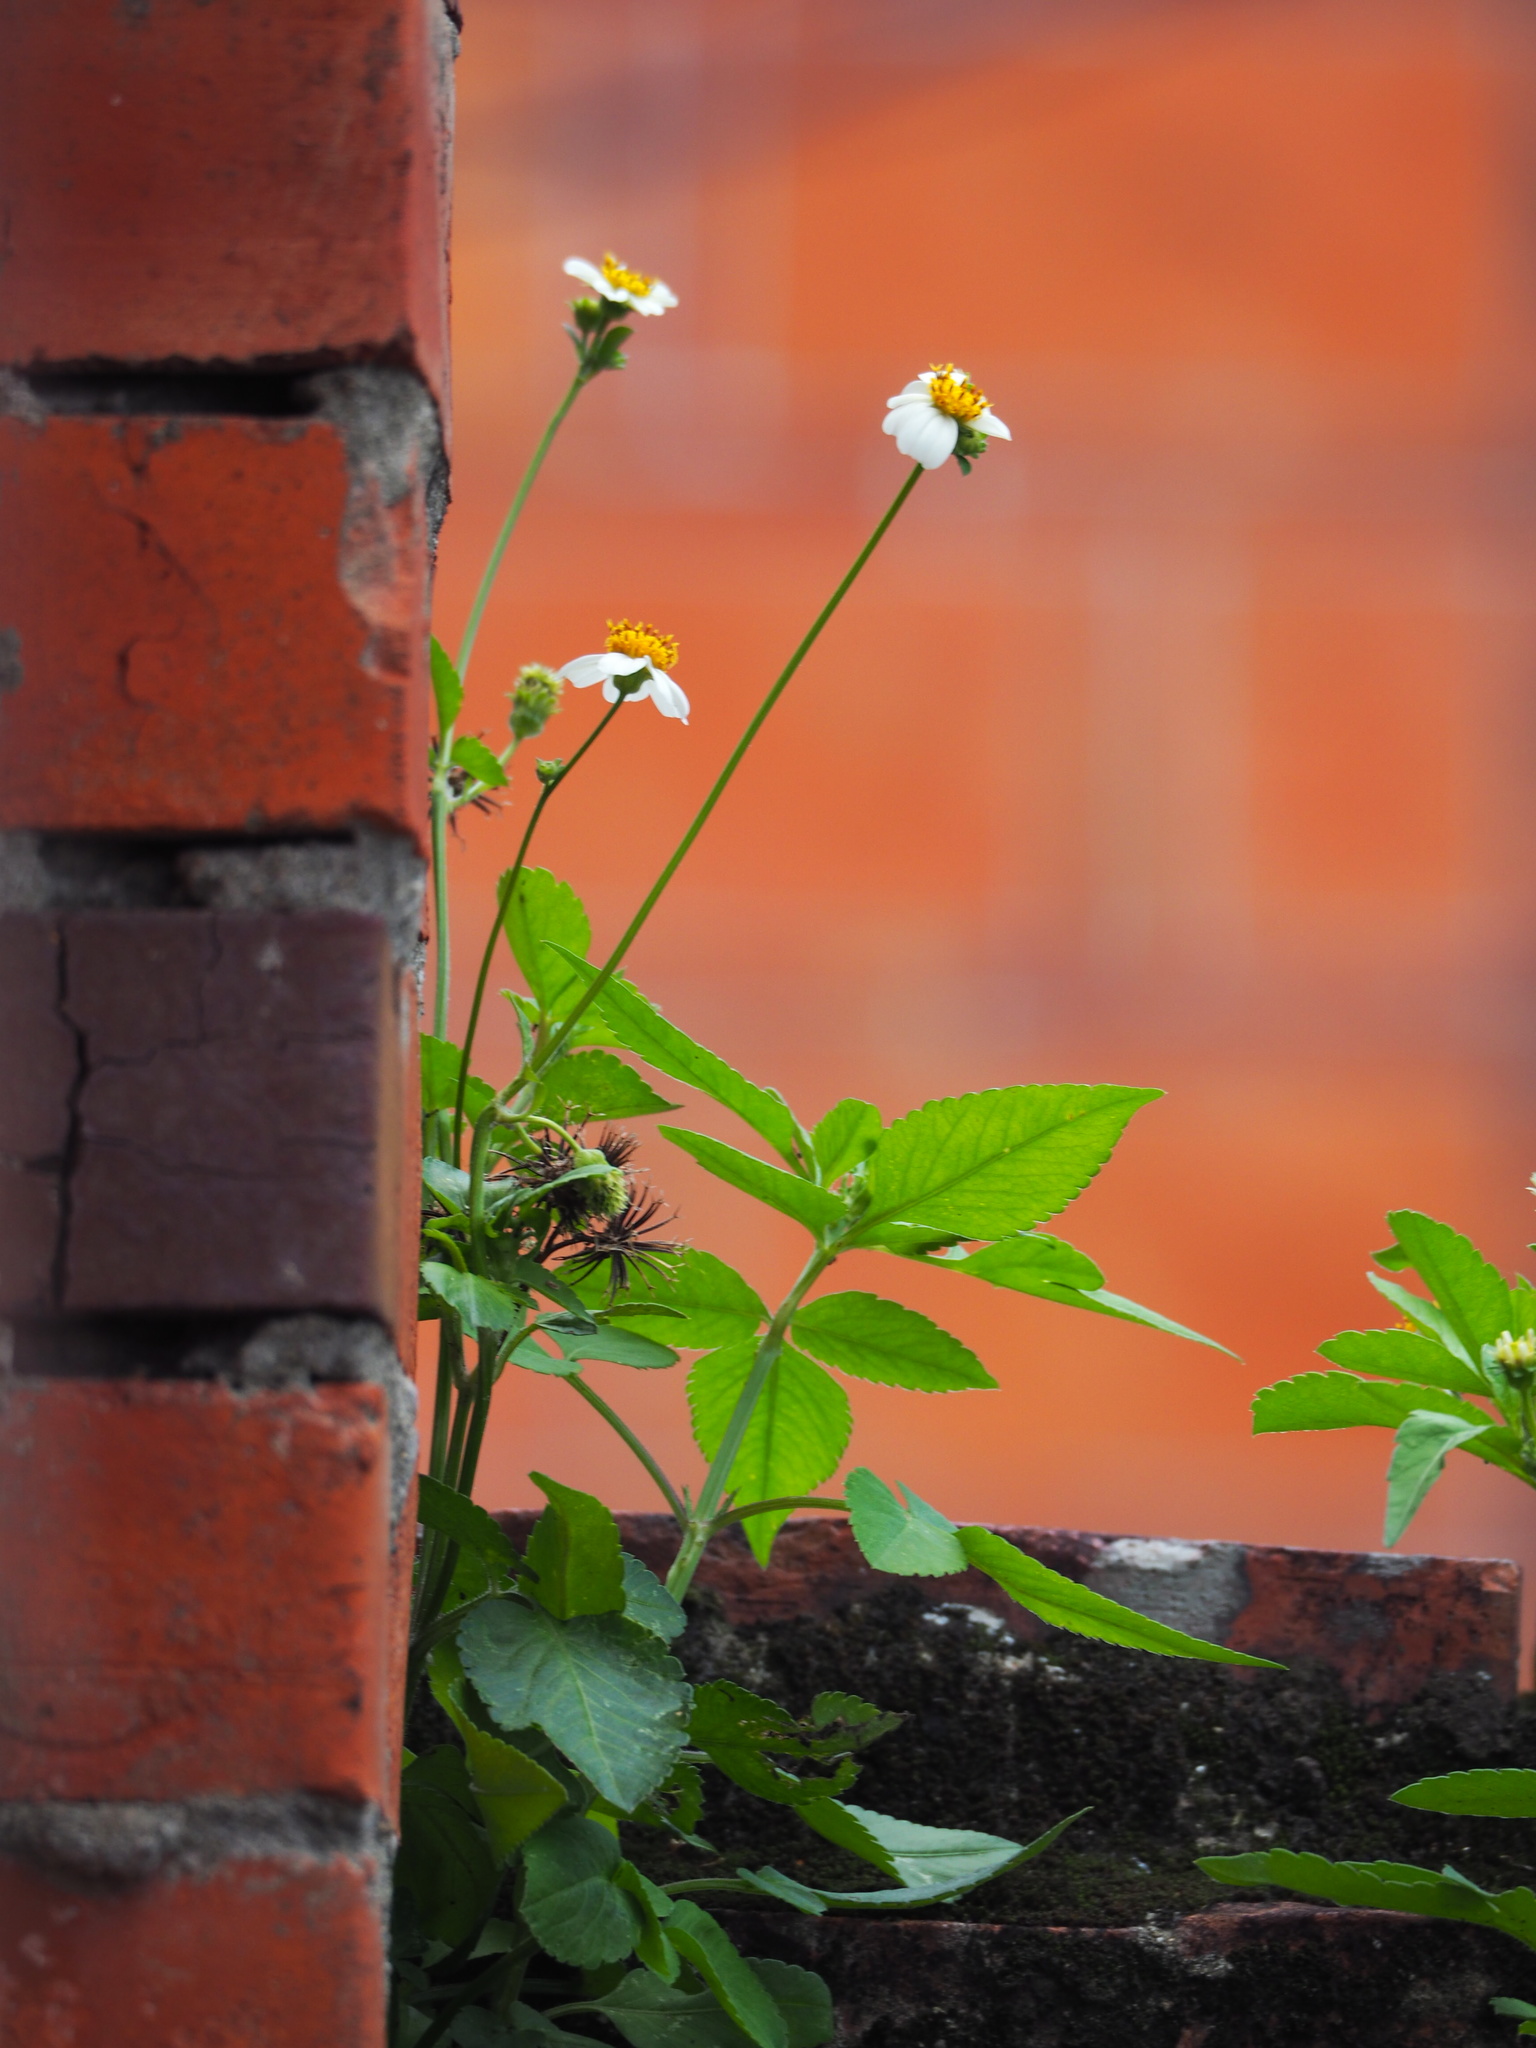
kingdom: Plantae
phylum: Tracheophyta
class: Magnoliopsida
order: Asterales
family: Asteraceae
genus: Bidens
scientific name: Bidens alba
